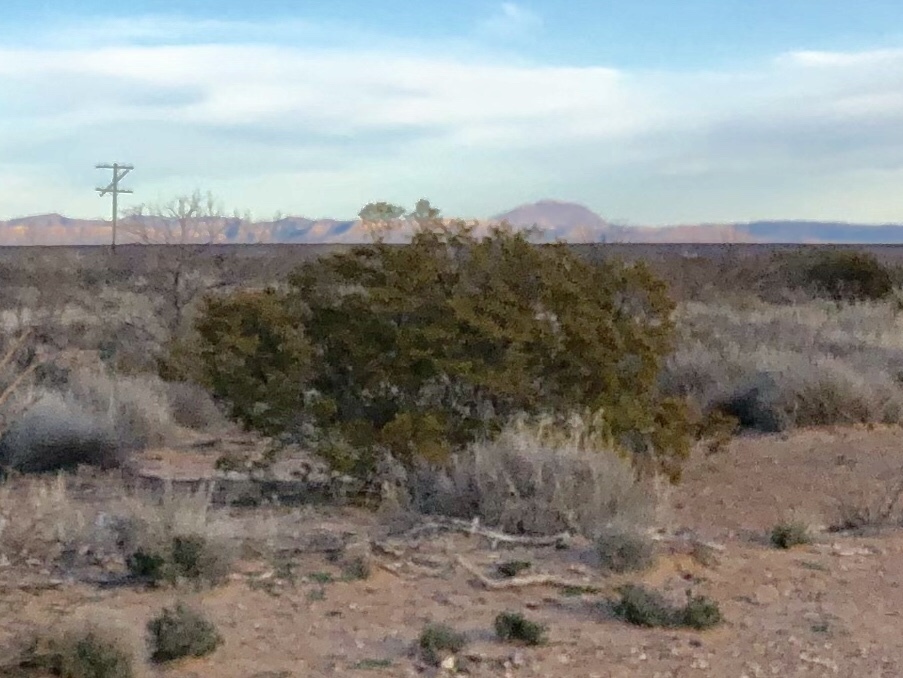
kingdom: Plantae
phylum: Tracheophyta
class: Magnoliopsida
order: Zygophyllales
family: Zygophyllaceae
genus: Larrea
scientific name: Larrea tridentata
